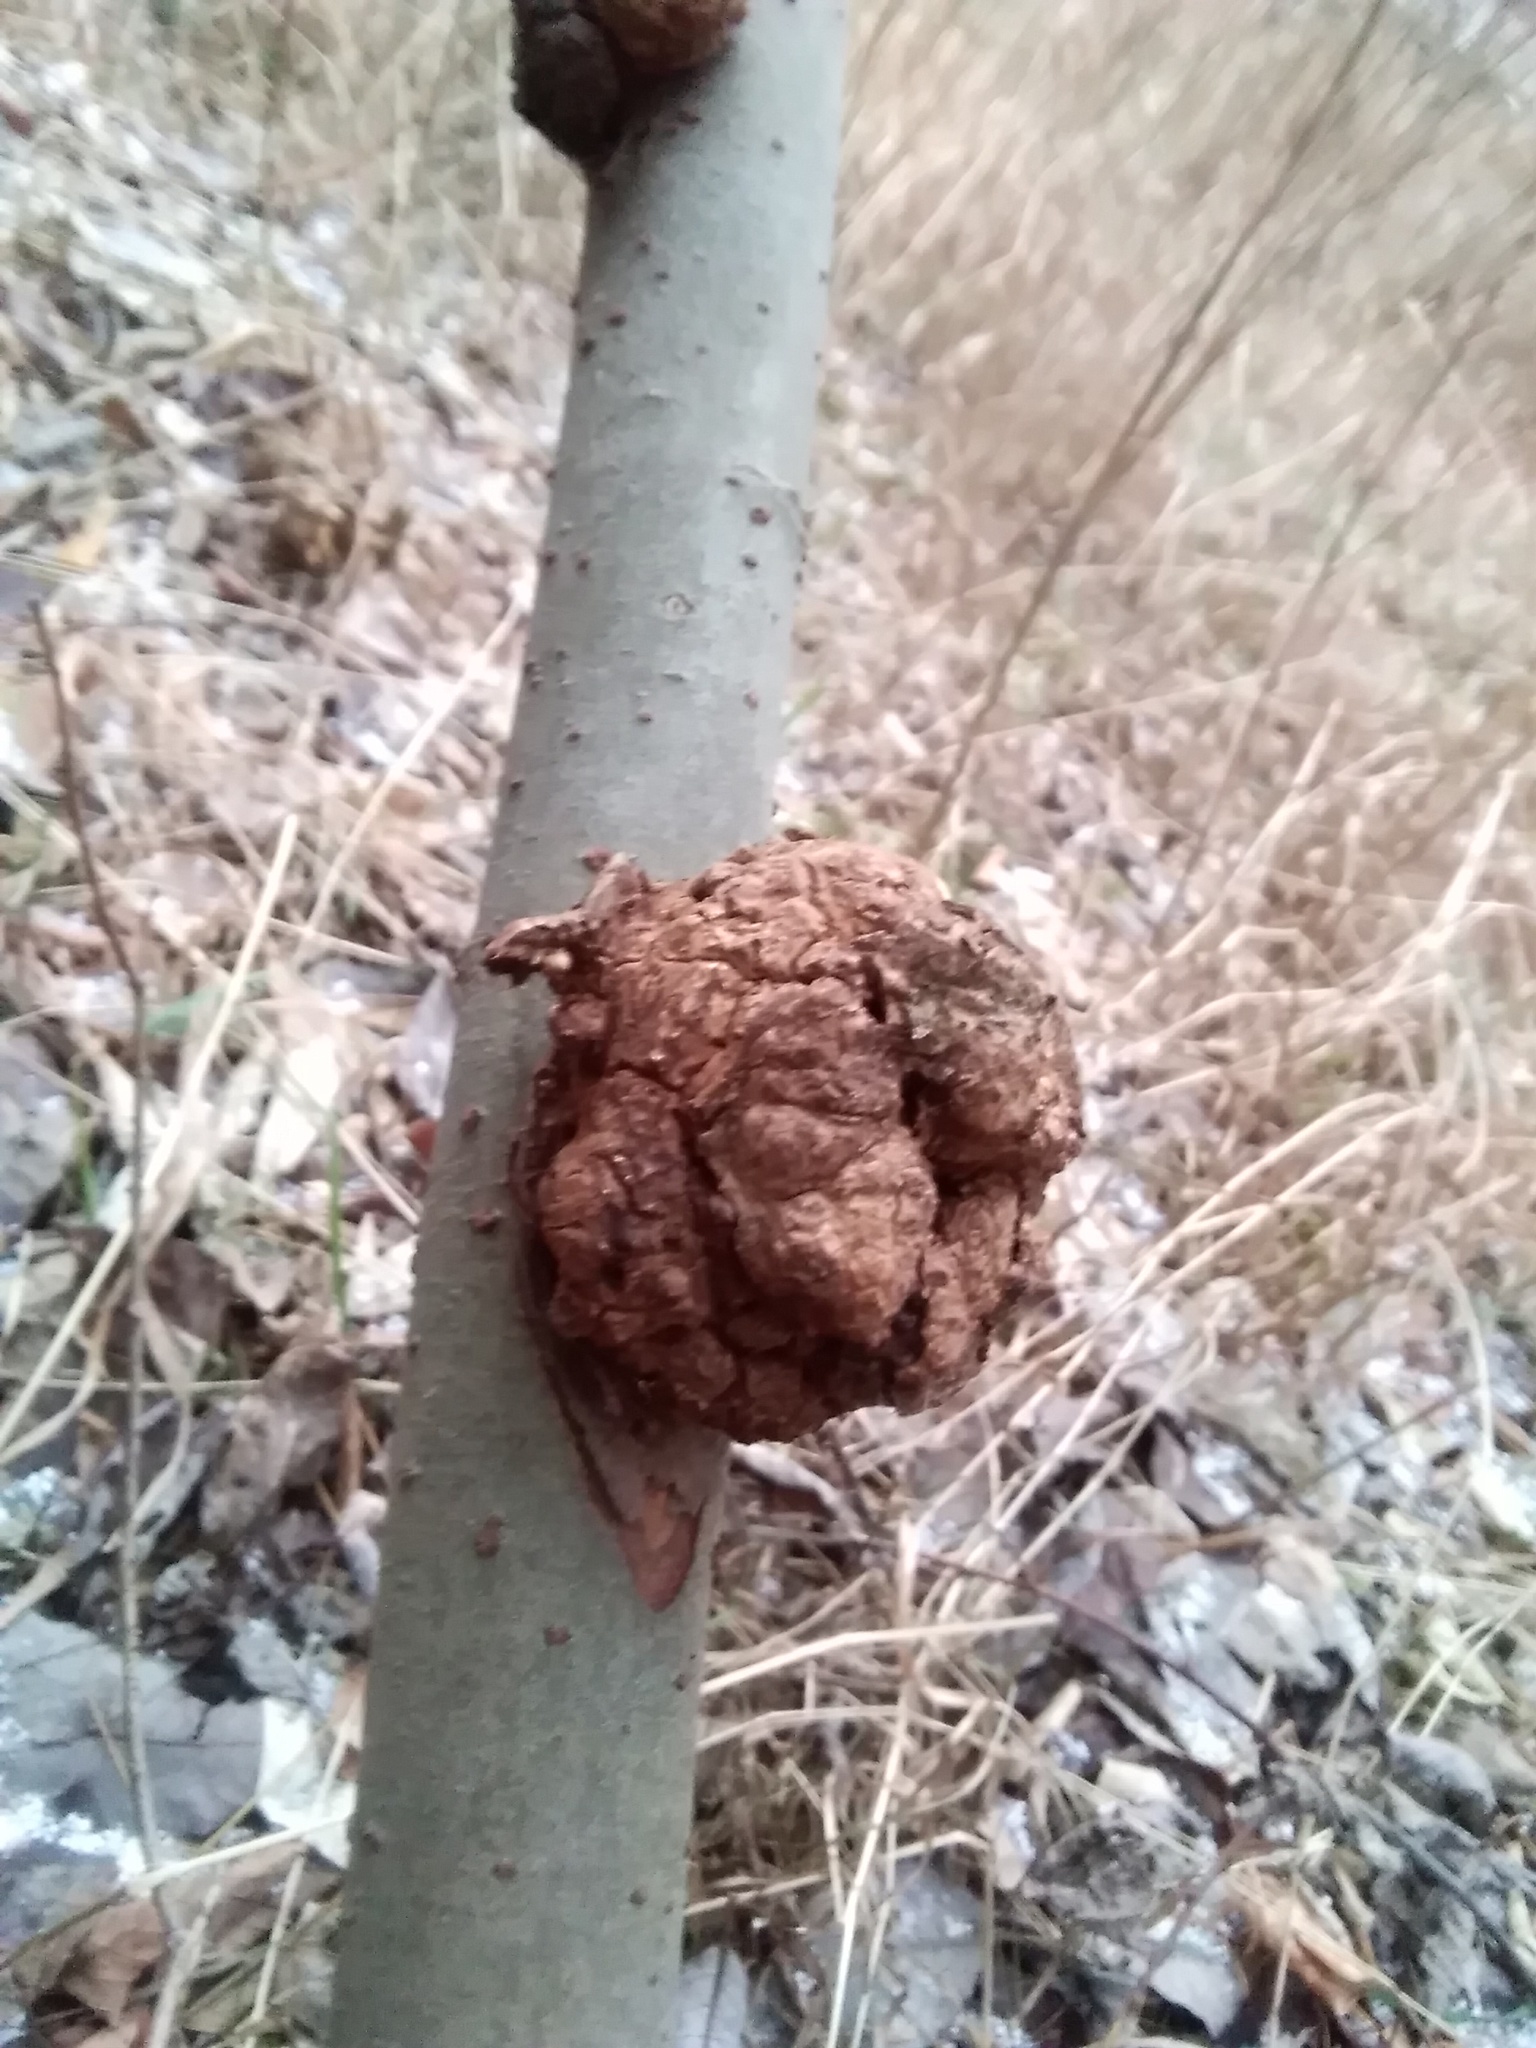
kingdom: Bacteria
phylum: Proteobacteria
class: Alphaproteobacteria
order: Rhizobiales
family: Rhizobiaceae
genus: Rhizobium
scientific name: Rhizobium Agrobacterium radiobacter
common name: Bacterial crown gall
